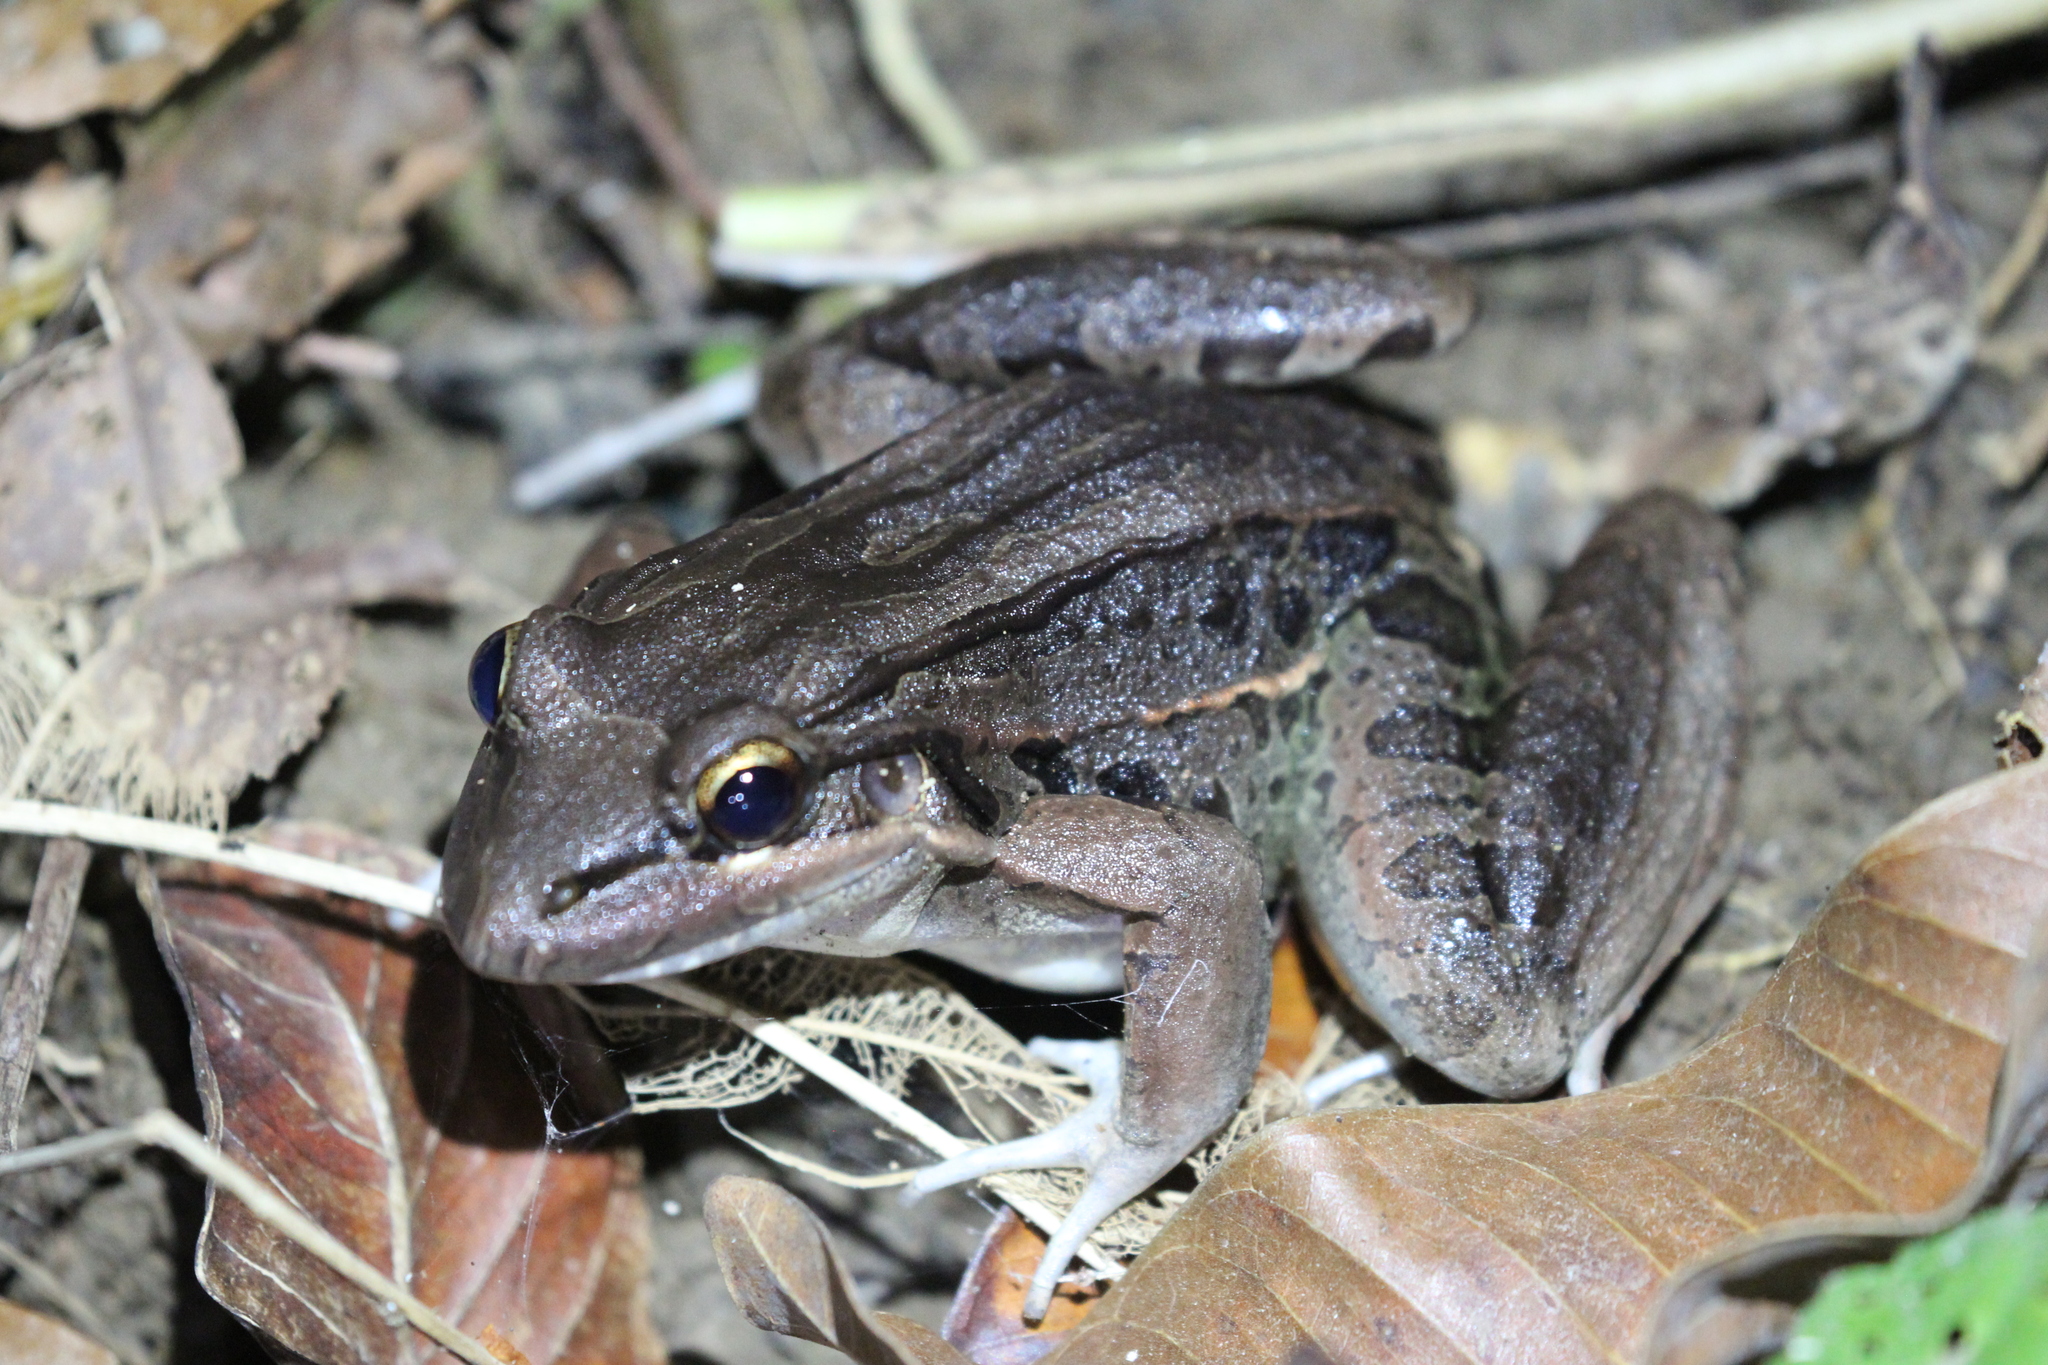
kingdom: Animalia
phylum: Chordata
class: Amphibia
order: Anura
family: Leptodactylidae
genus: Leptodactylus
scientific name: Leptodactylus insularum
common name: San miguel island frog
